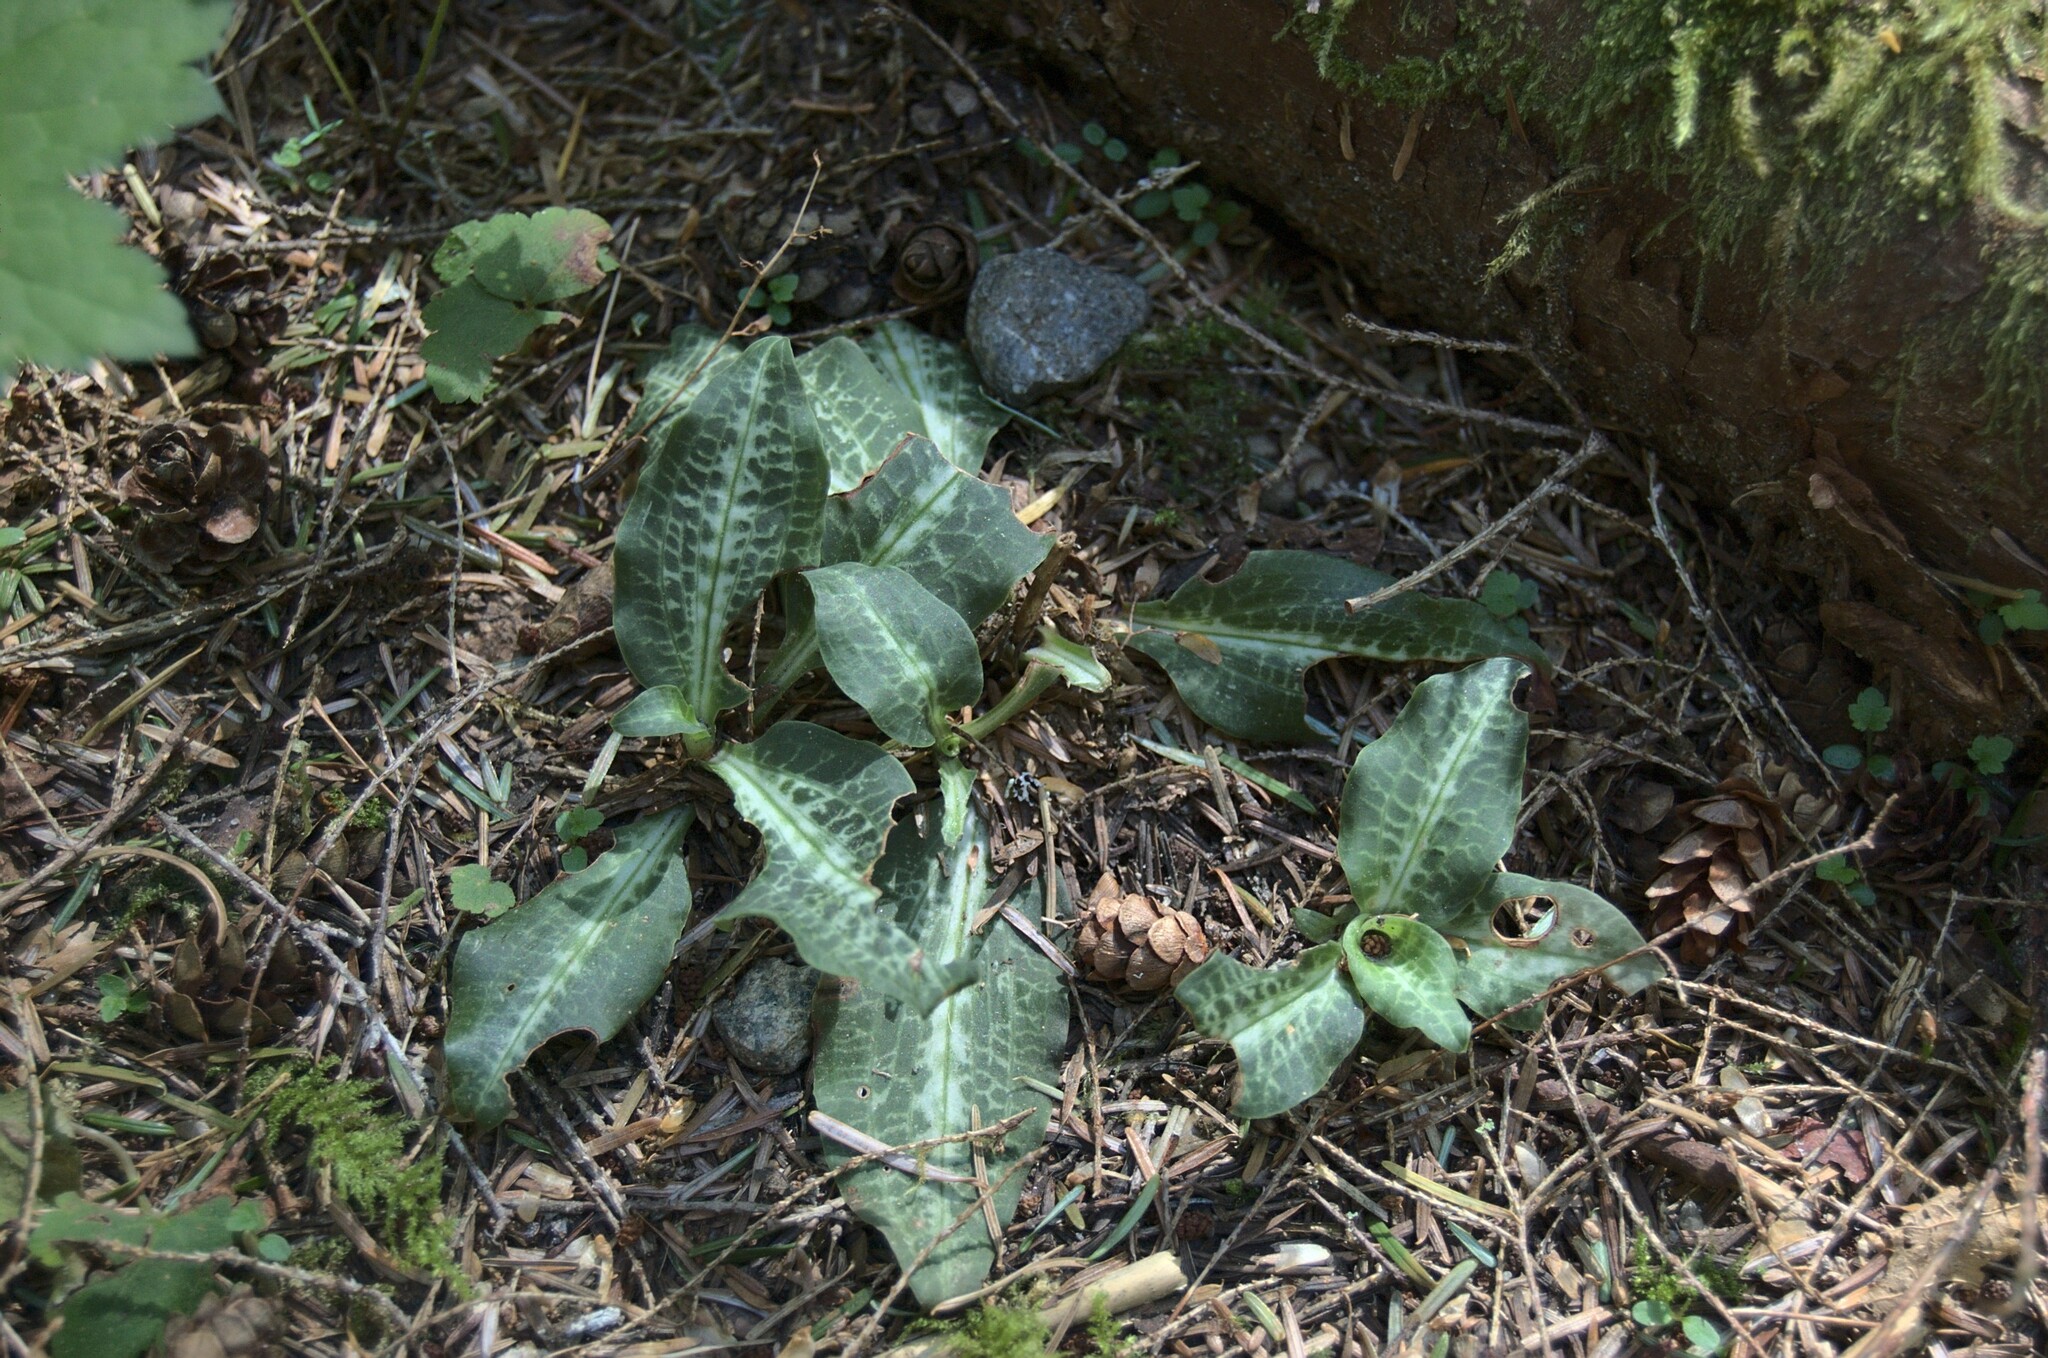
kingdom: Plantae
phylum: Tracheophyta
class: Liliopsida
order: Asparagales
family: Orchidaceae
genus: Goodyera
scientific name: Goodyera oblongifolia
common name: Giant rattlesnake-plantain
